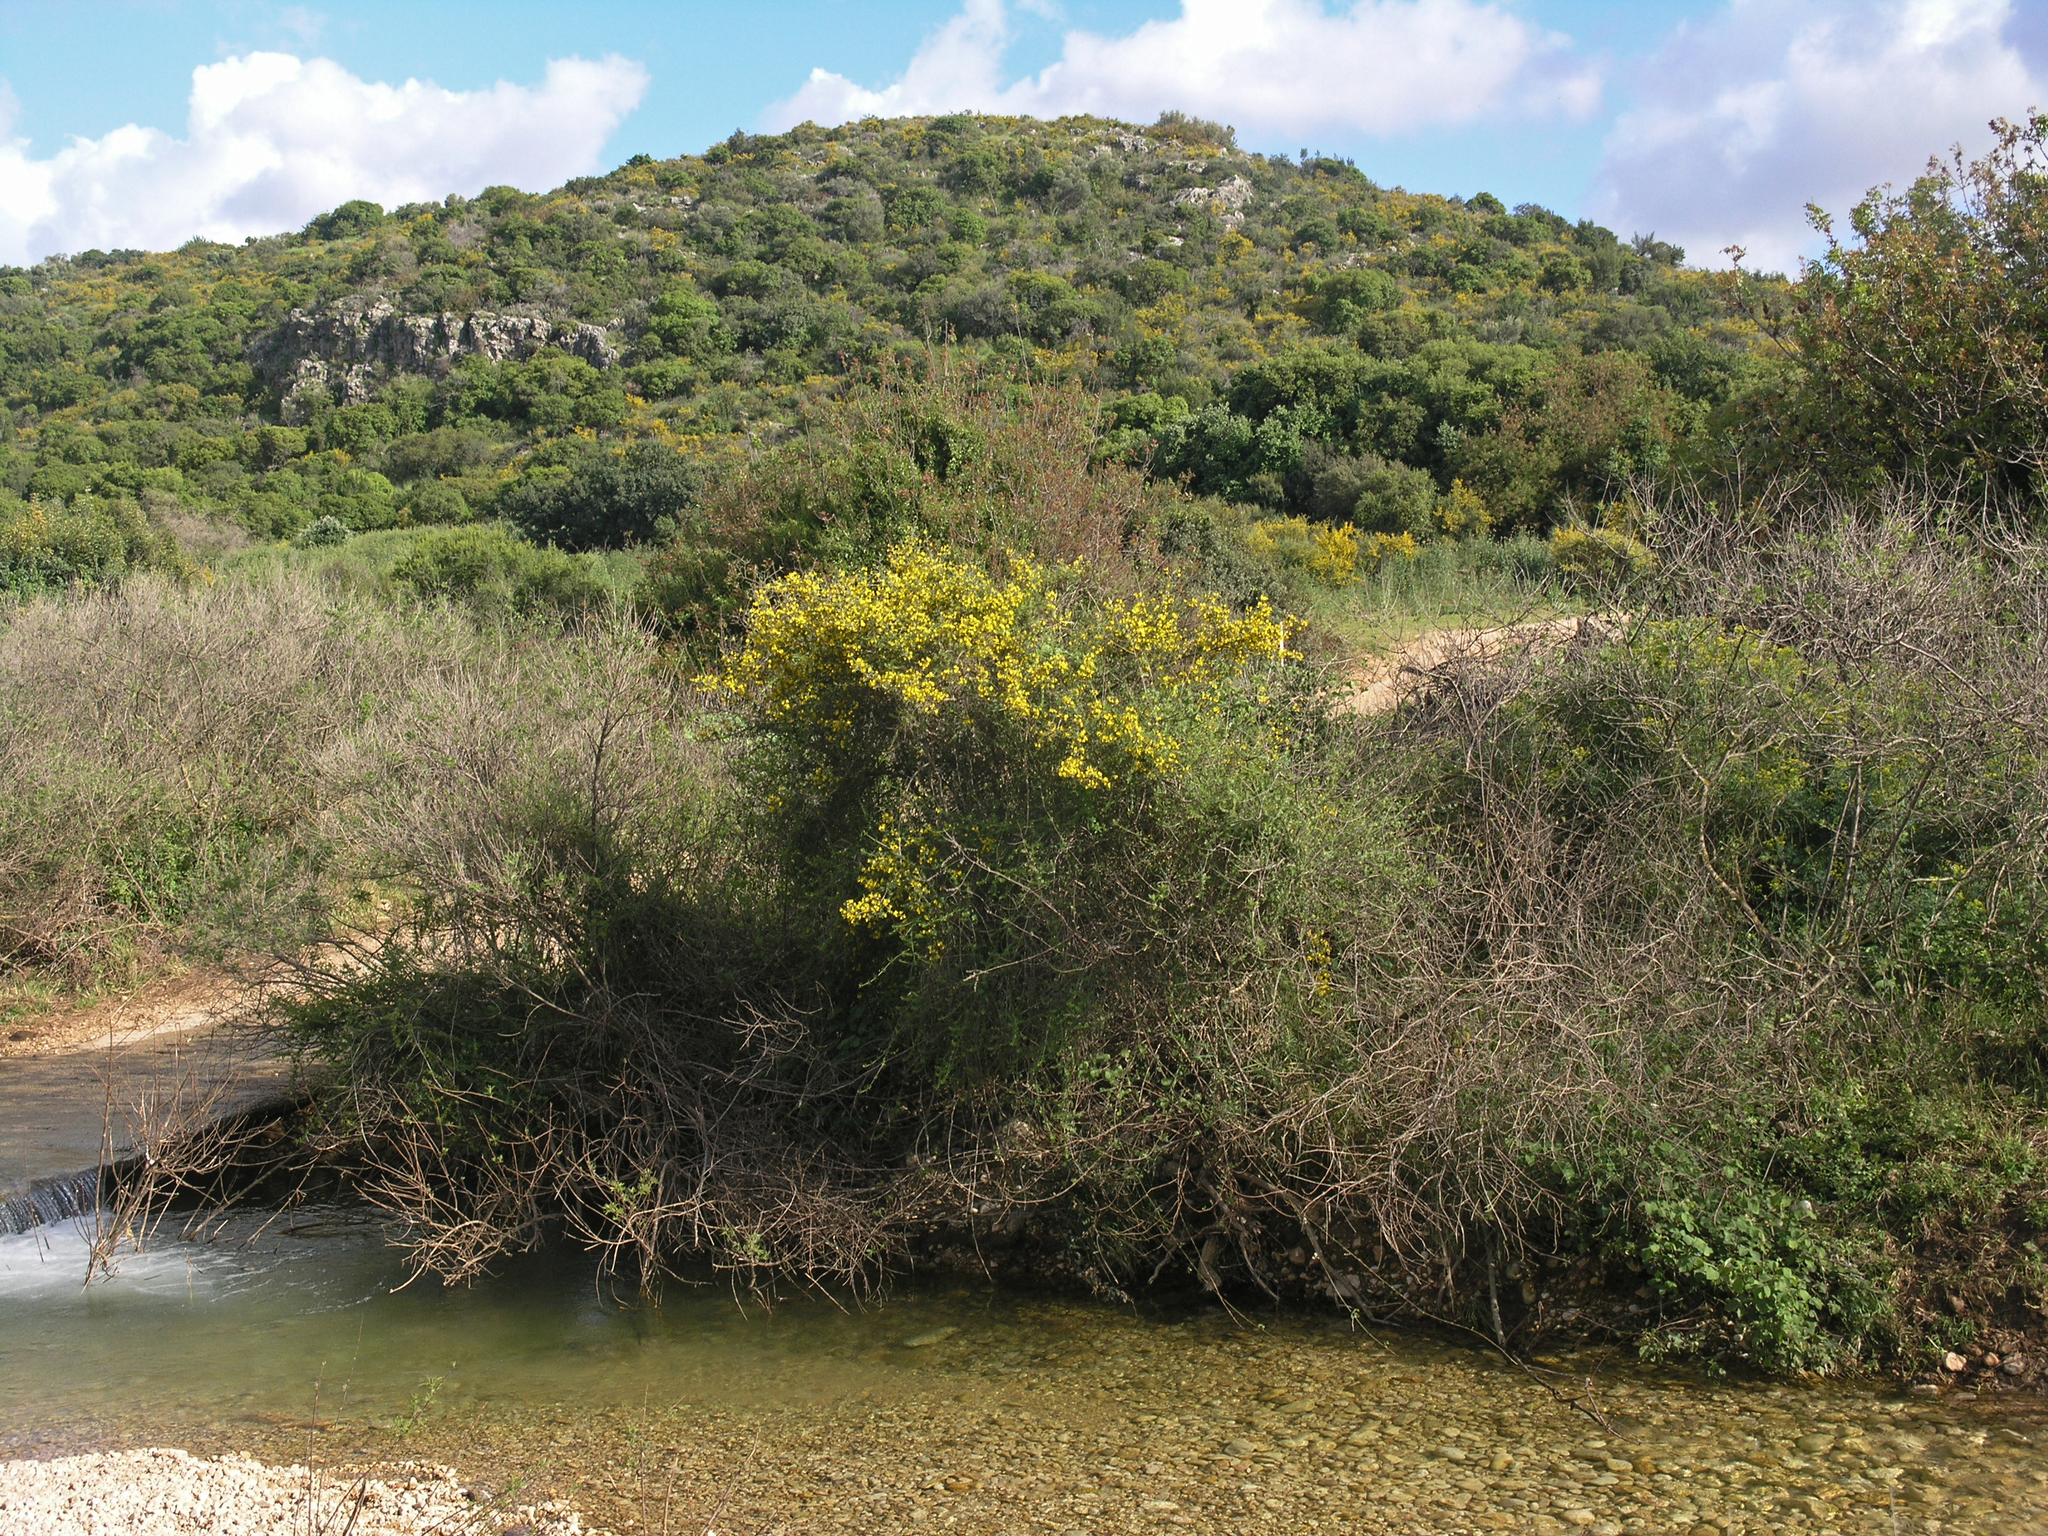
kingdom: Plantae
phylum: Tracheophyta
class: Magnoliopsida
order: Fabales
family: Fabaceae
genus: Calicotome
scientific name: Calicotome villosa
